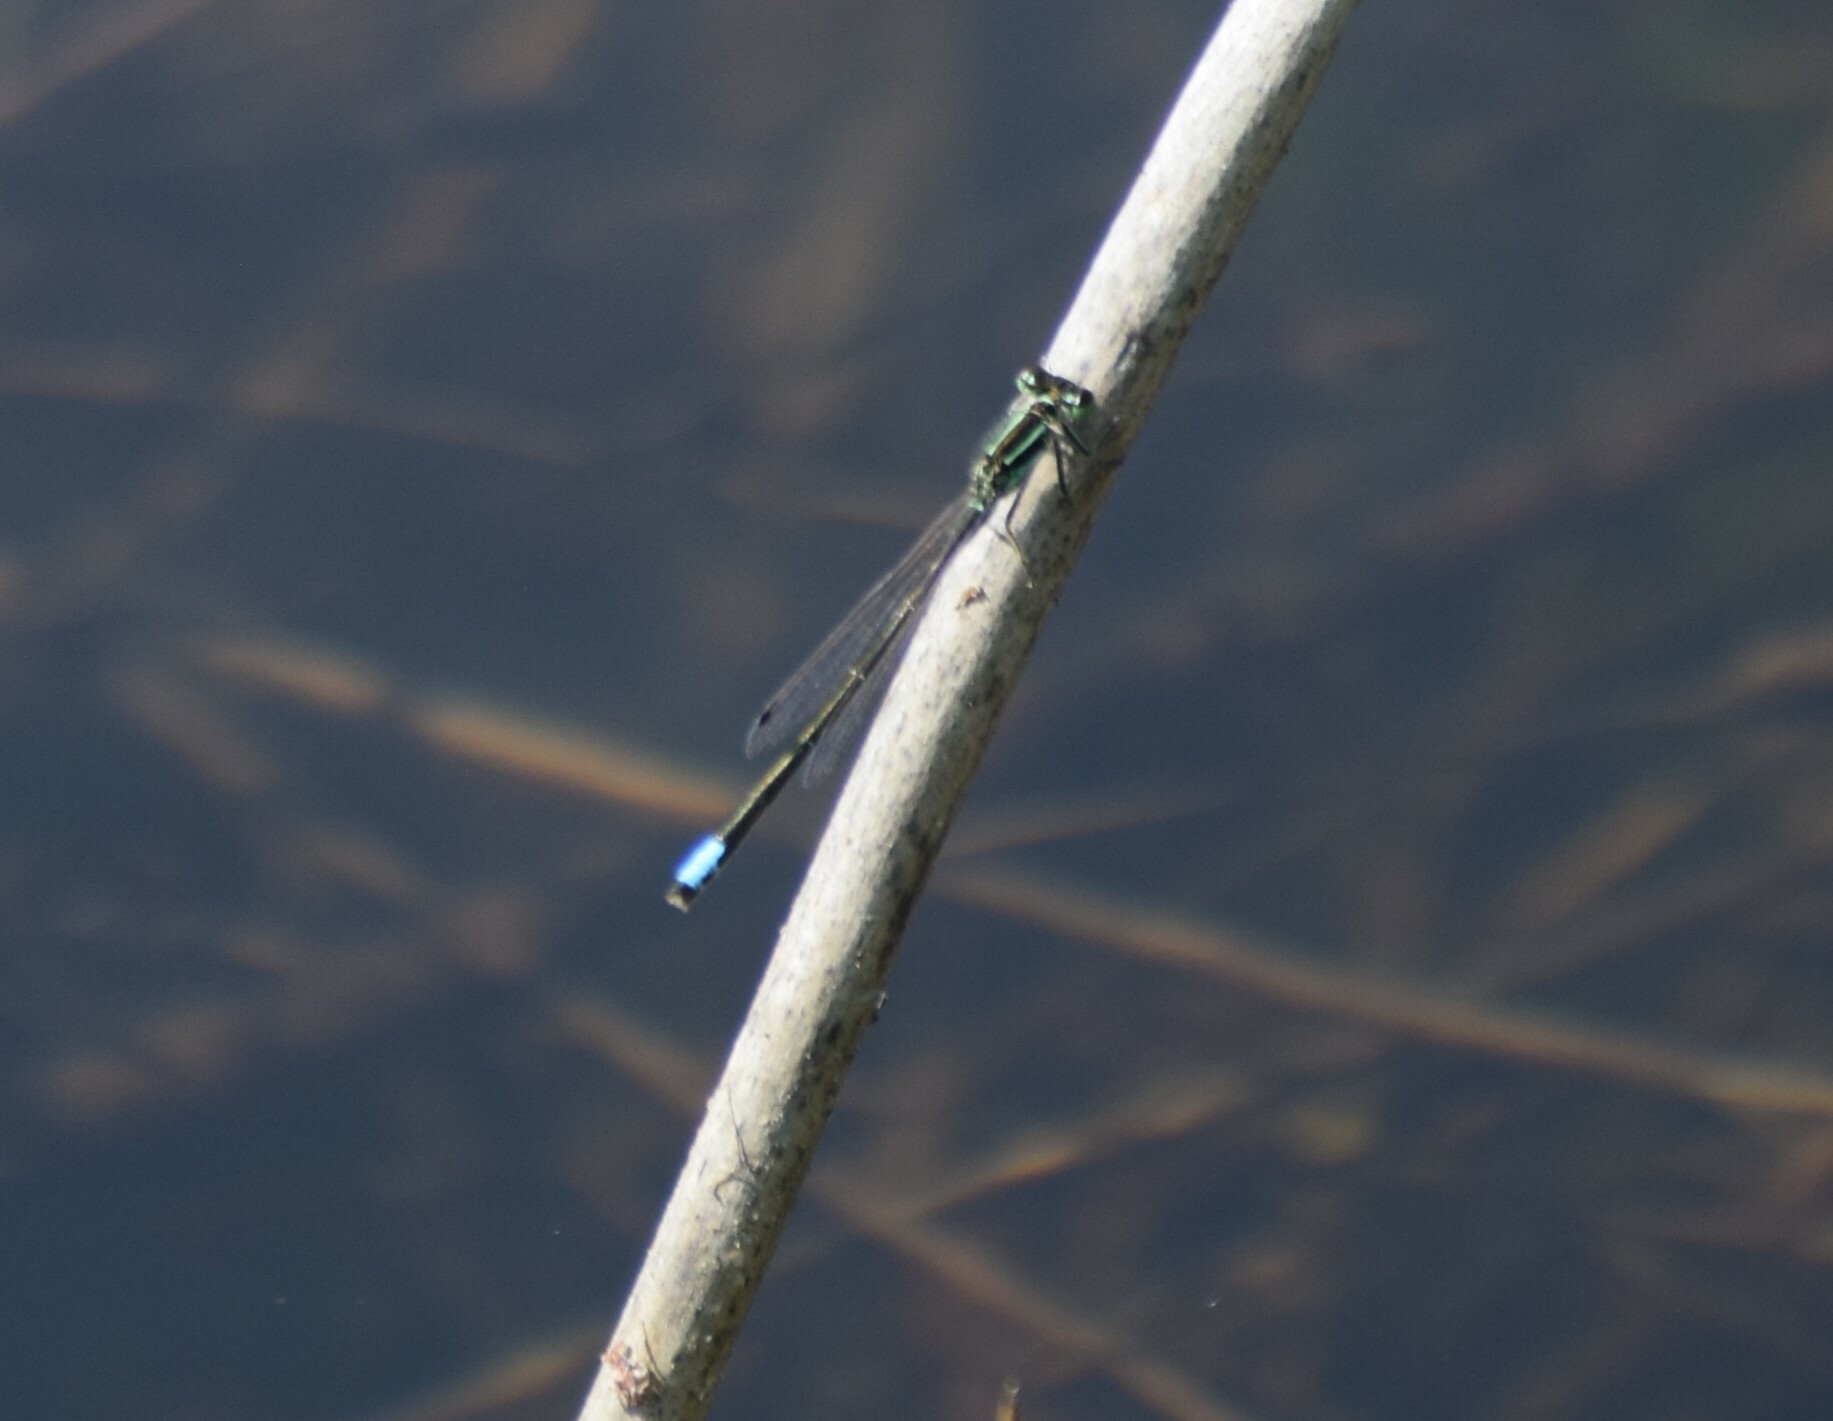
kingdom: Animalia
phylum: Arthropoda
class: Insecta
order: Odonata
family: Coenagrionidae
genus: Ischnura
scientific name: Ischnura verticalis
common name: Eastern forktail
